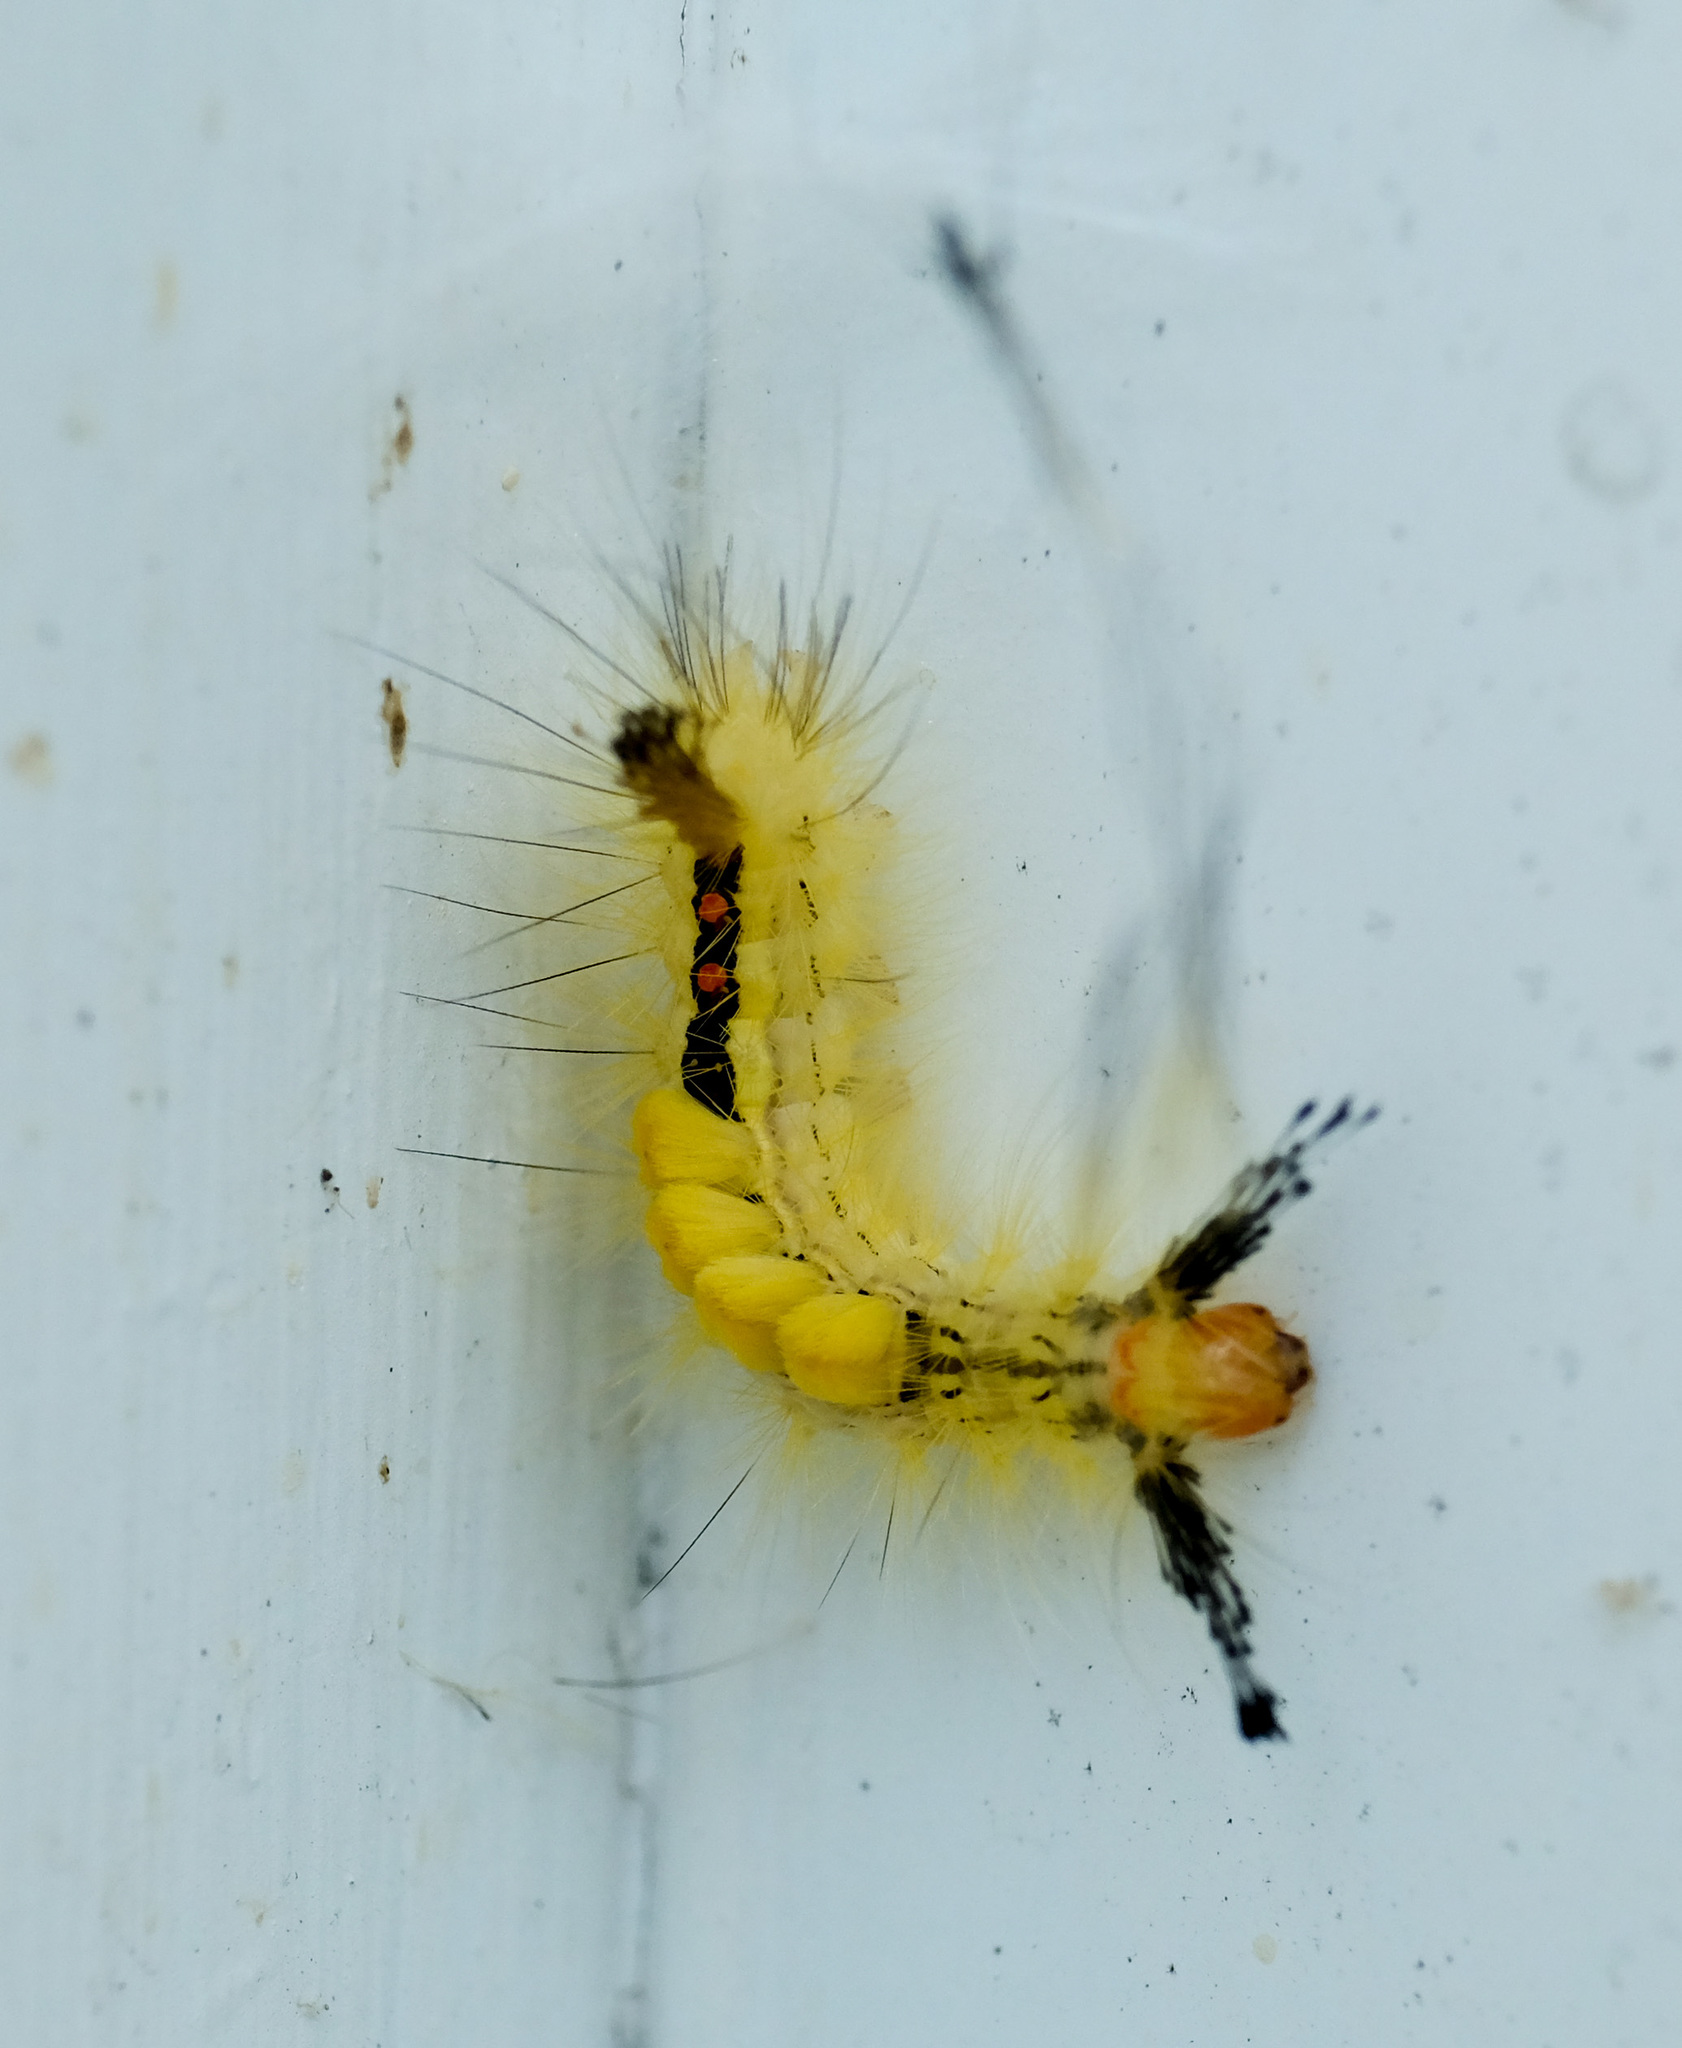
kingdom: Animalia
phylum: Arthropoda
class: Insecta
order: Lepidoptera
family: Erebidae
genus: Orgyia
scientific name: Orgyia leucostigma
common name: White-marked tussock moth
